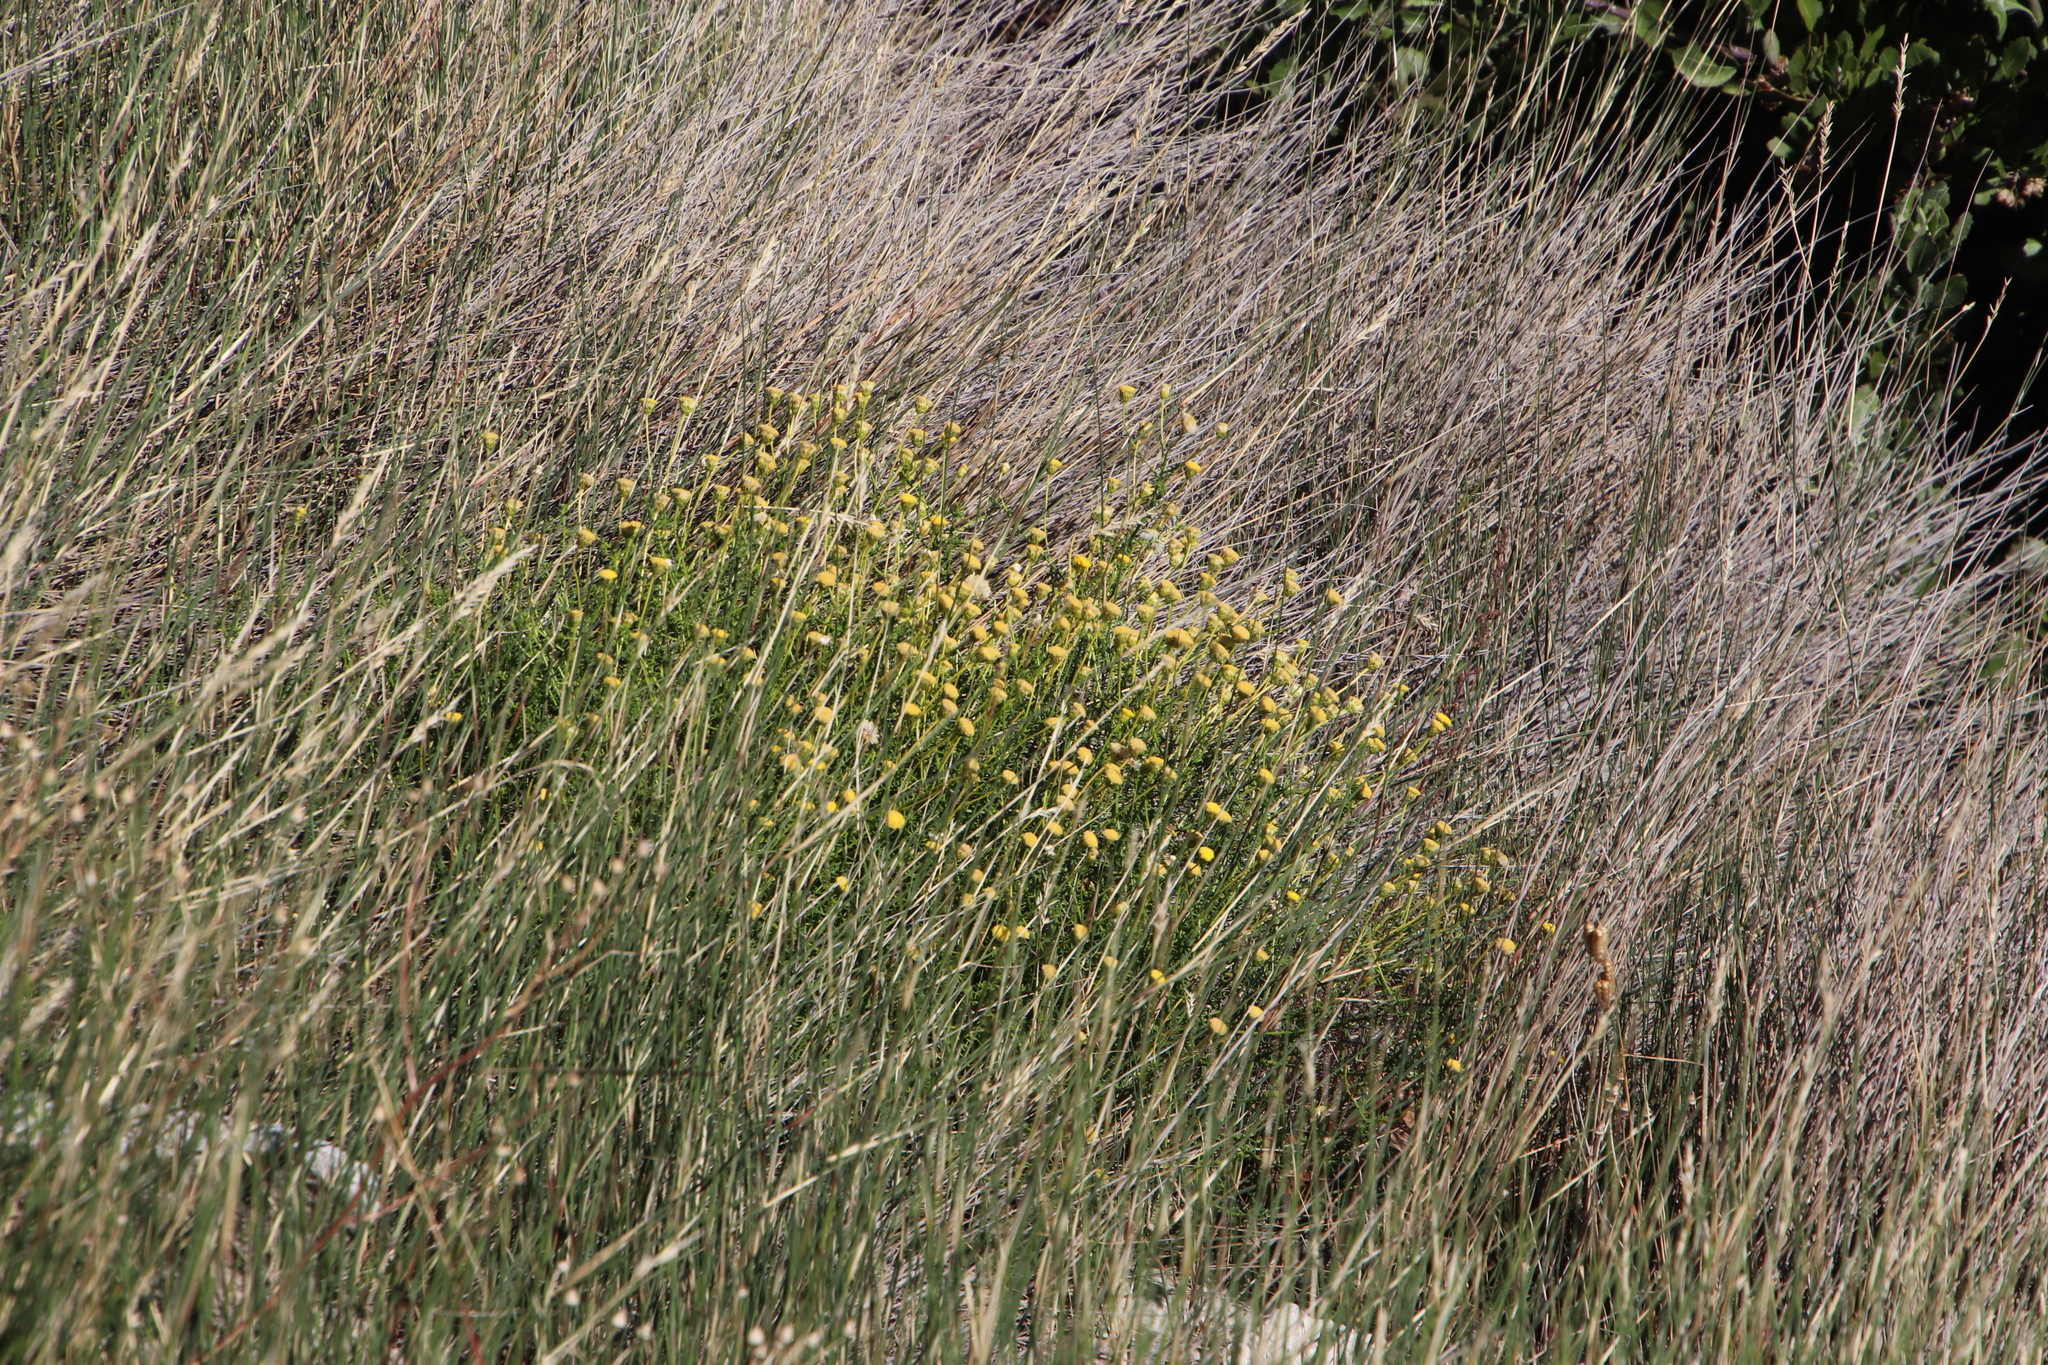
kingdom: Plantae
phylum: Tracheophyta
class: Magnoliopsida
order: Asterales
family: Asteraceae
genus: Chrysocoma
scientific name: Chrysocoma cernua
